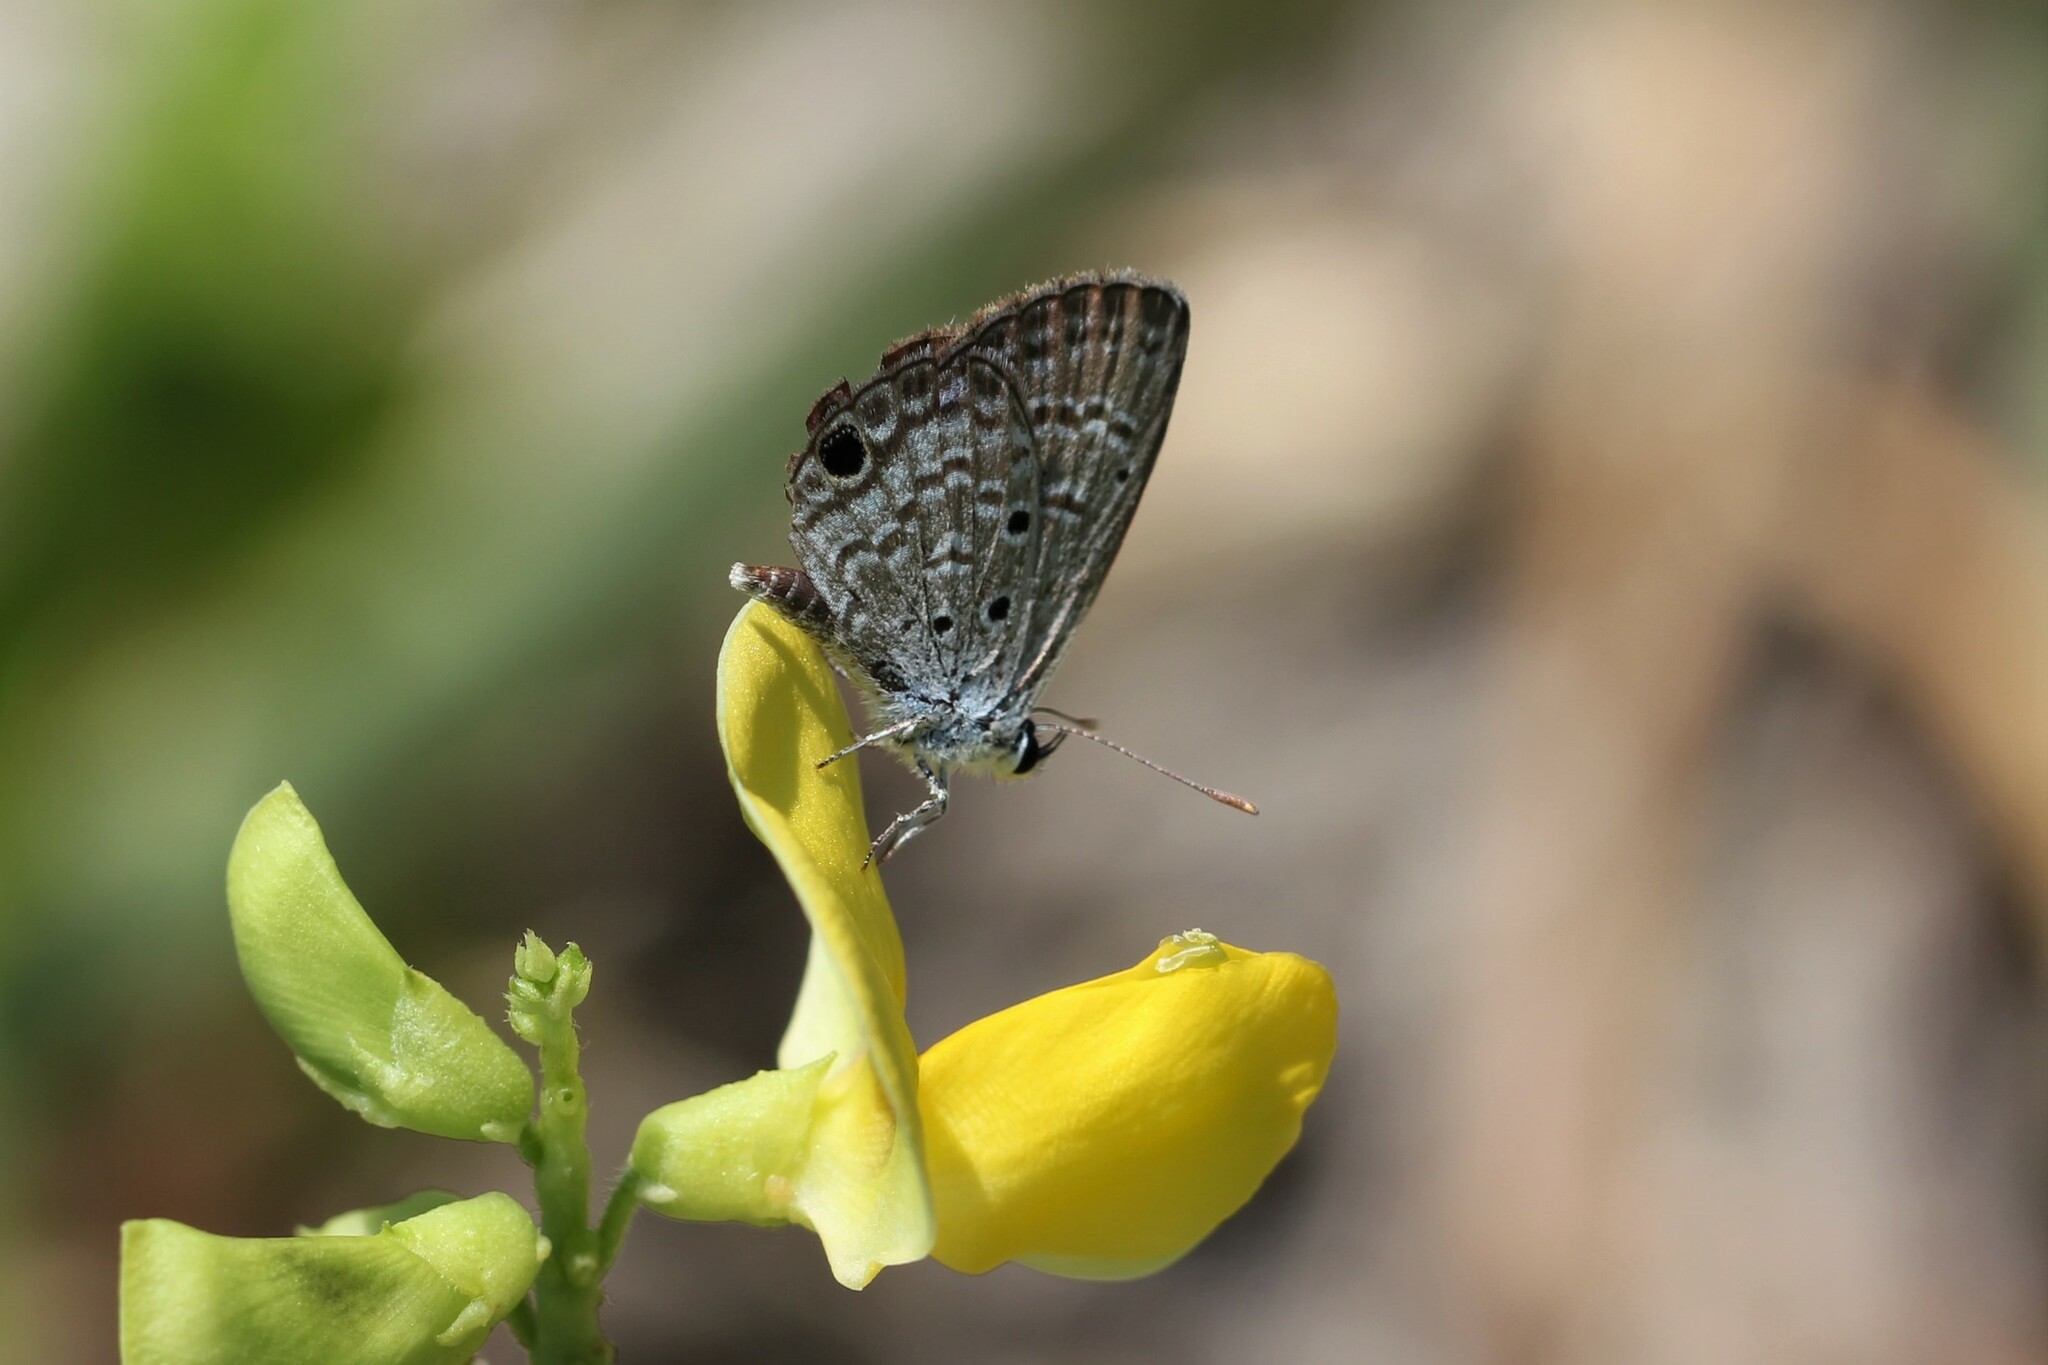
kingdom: Animalia
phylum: Arthropoda
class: Insecta
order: Lepidoptera
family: Lycaenidae
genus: Hemiargus
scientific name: Hemiargus ceraunus
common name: Ceraunus blue
